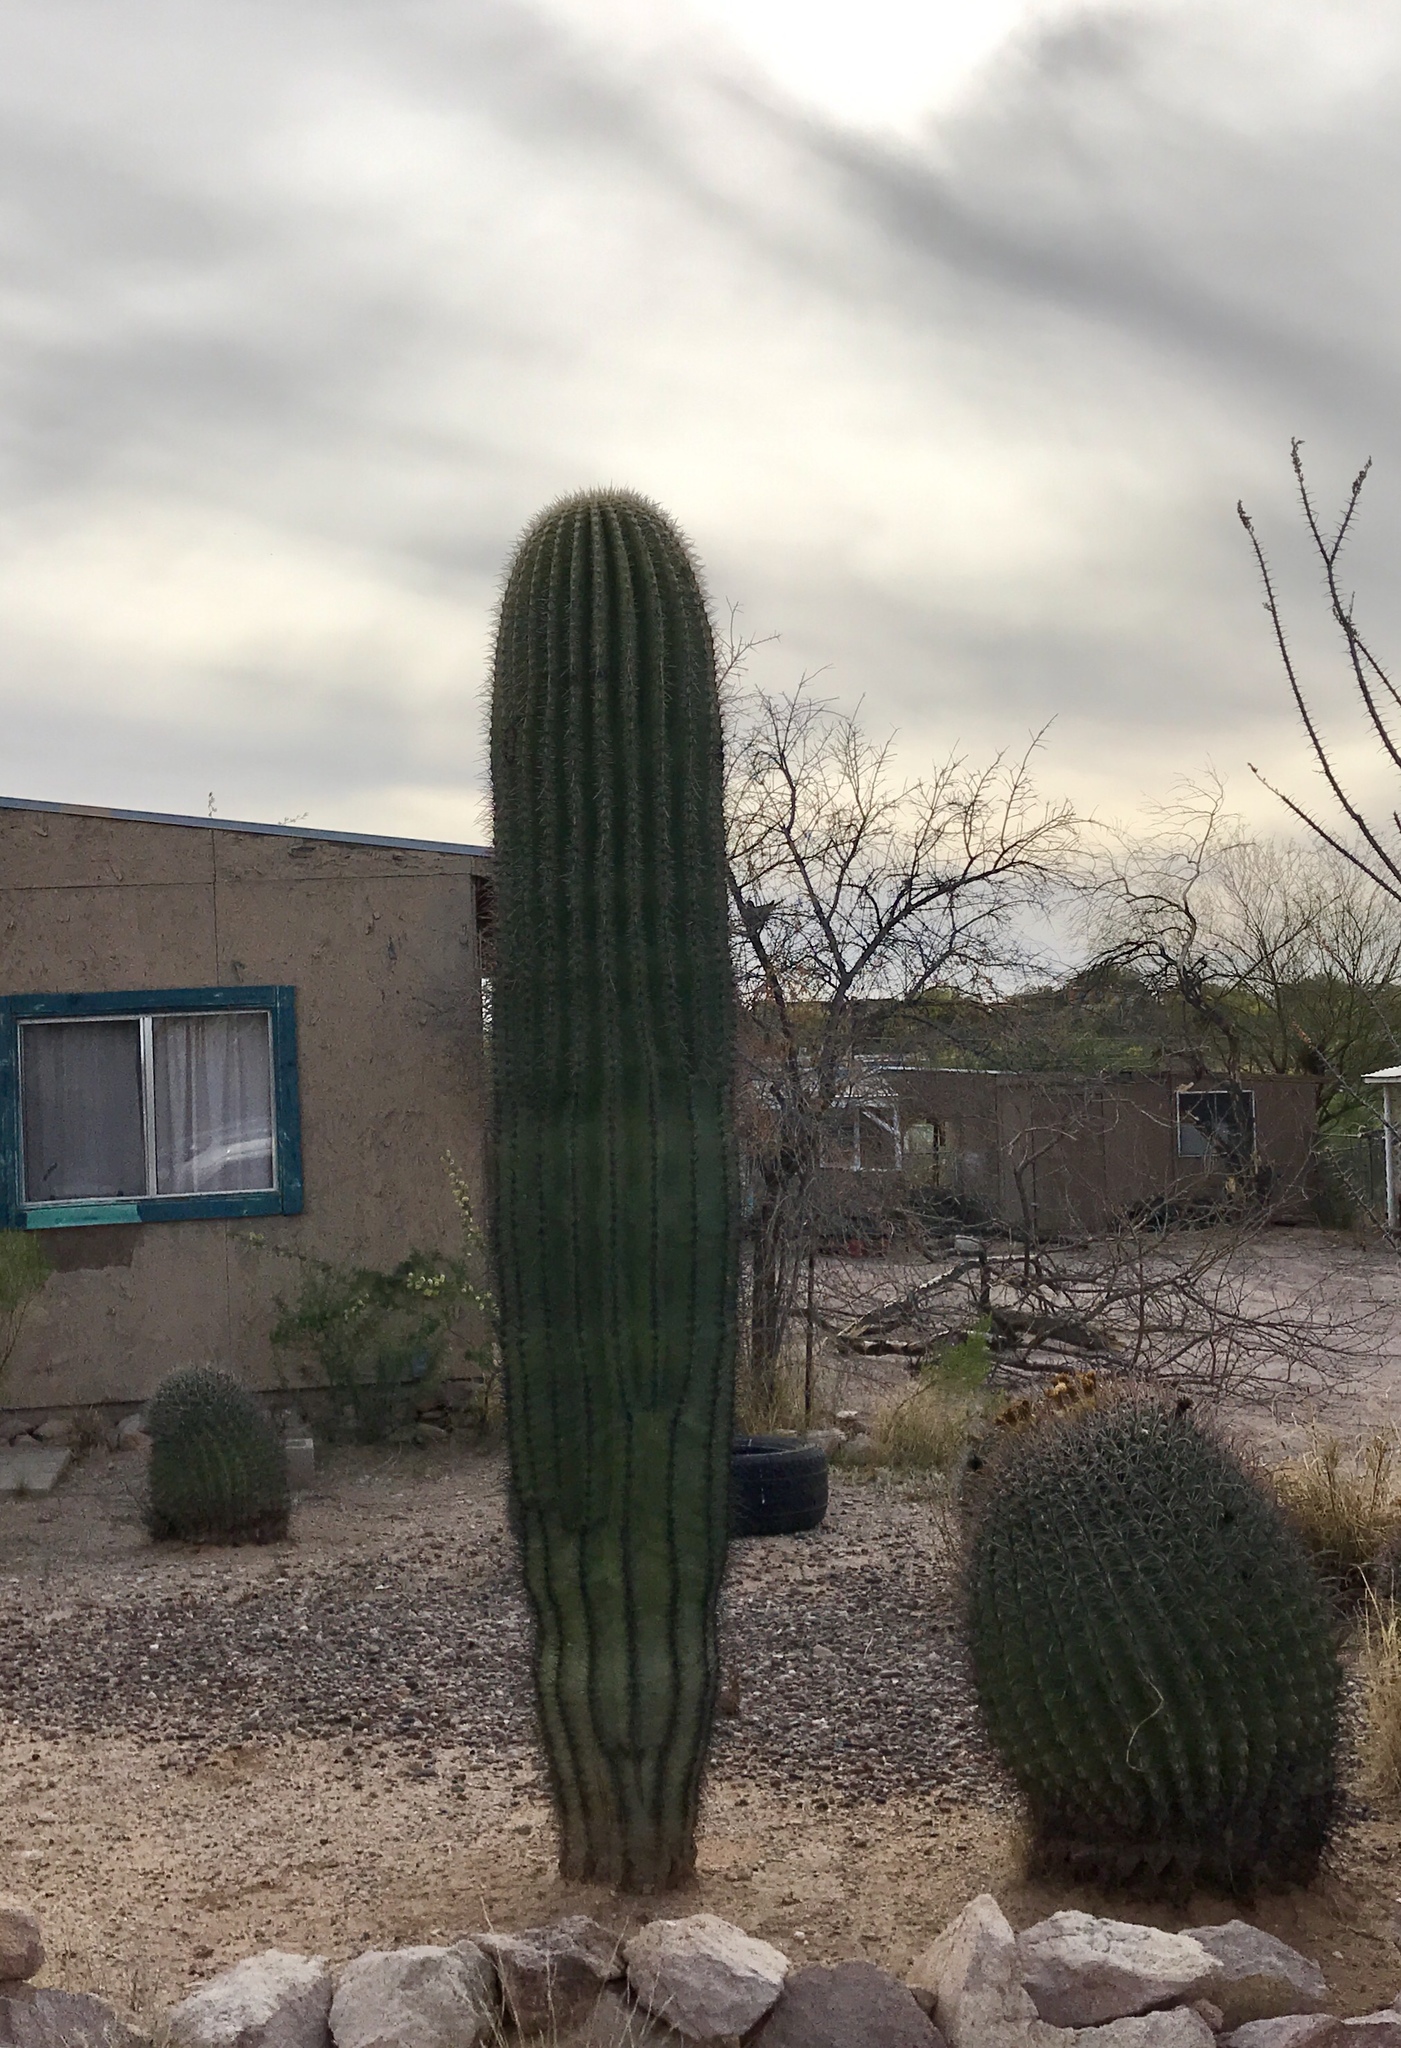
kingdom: Plantae
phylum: Tracheophyta
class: Magnoliopsida
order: Caryophyllales
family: Cactaceae
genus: Carnegiea
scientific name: Carnegiea gigantea
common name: Saguaro
